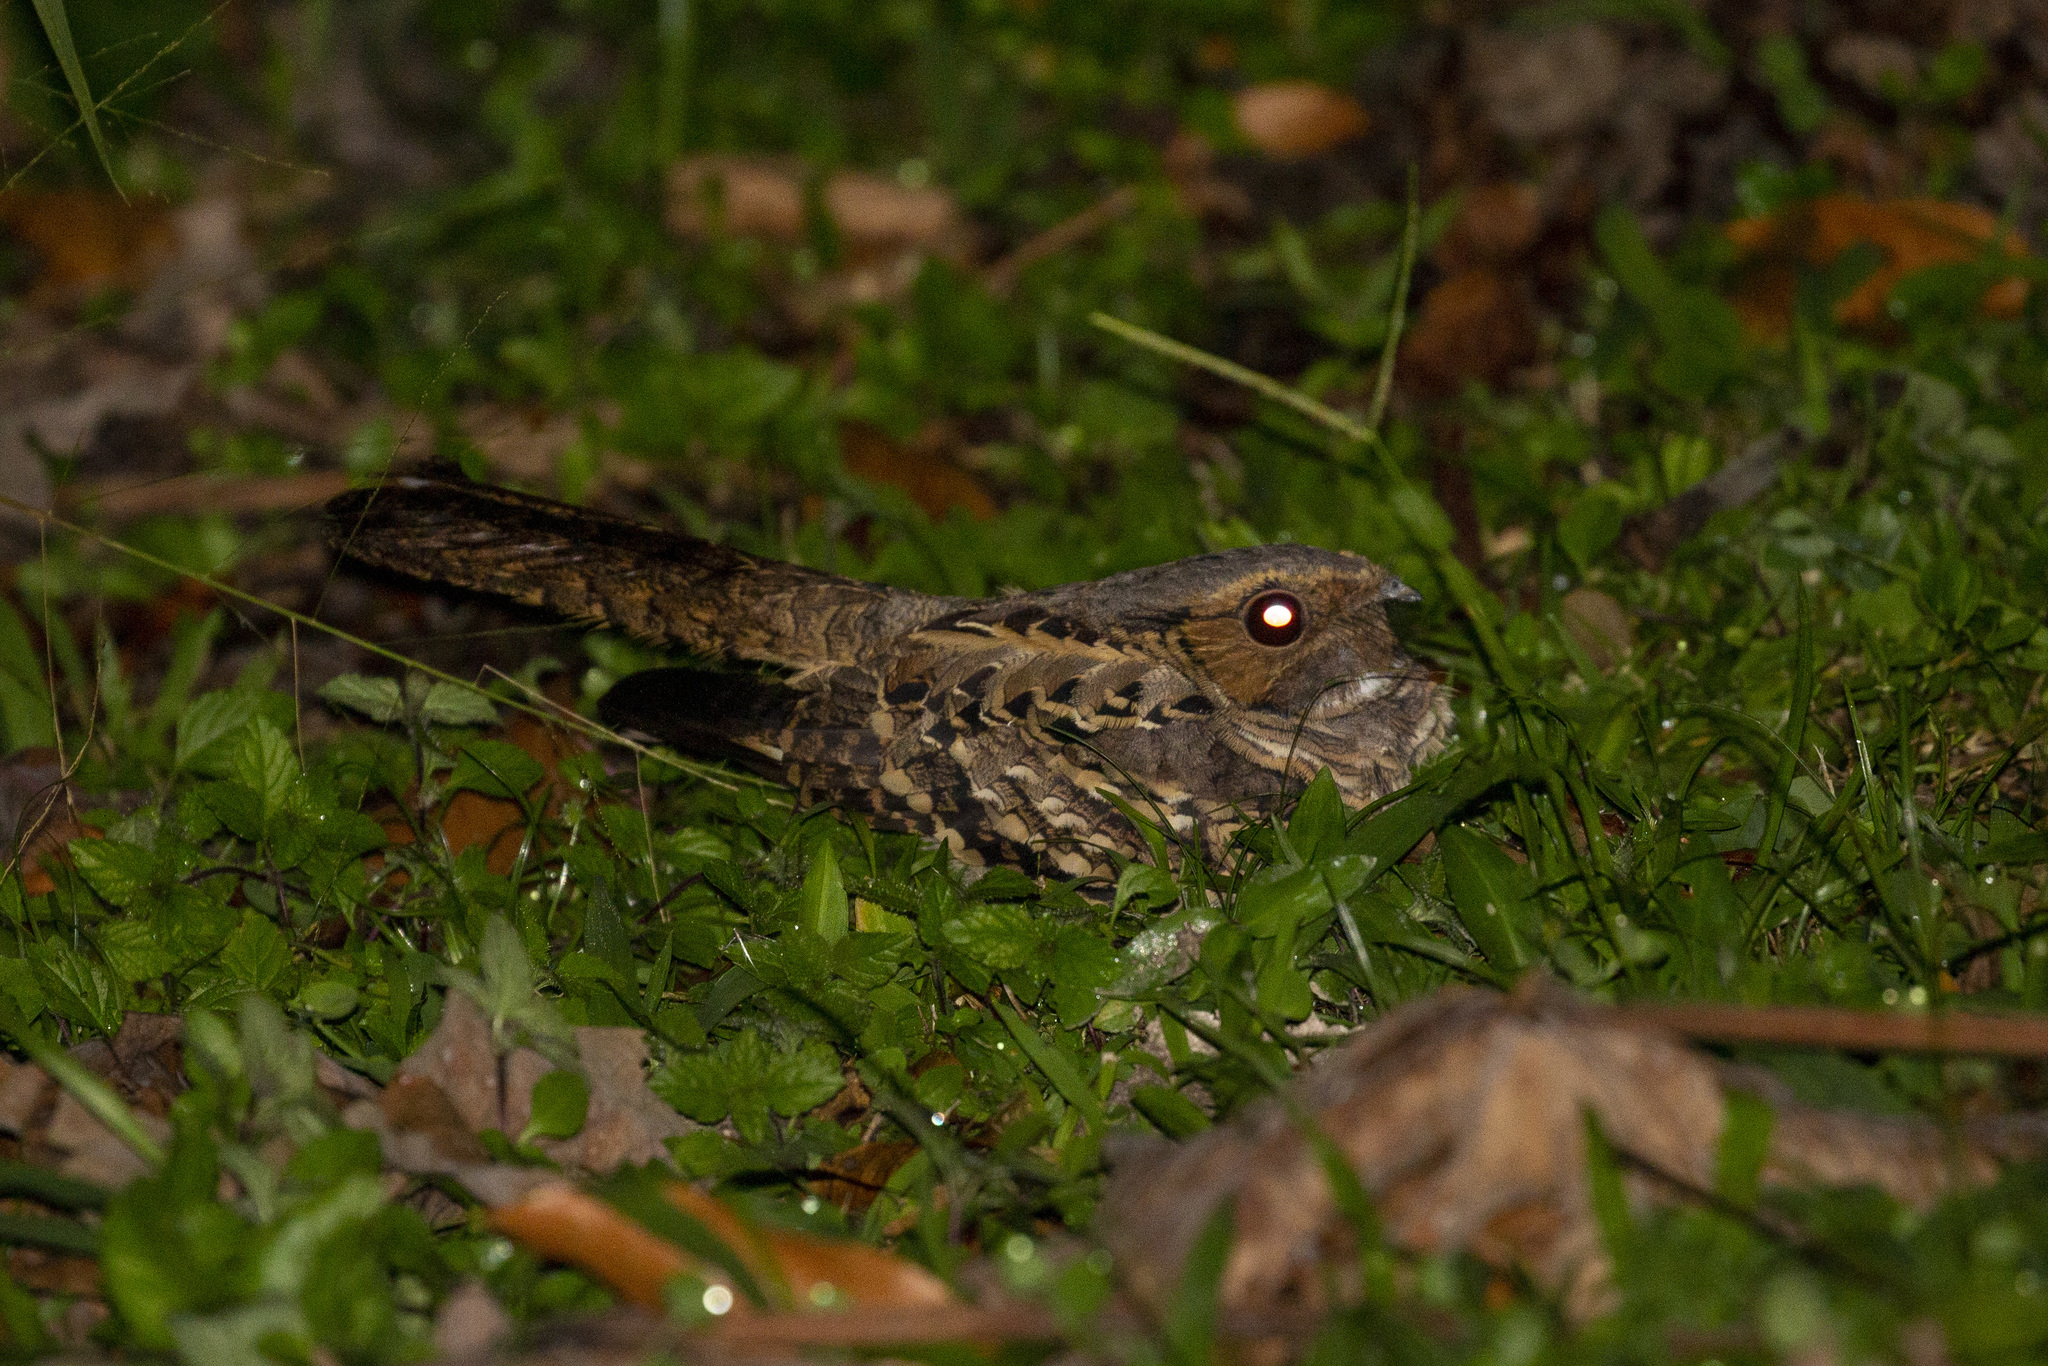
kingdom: Animalia
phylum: Chordata
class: Aves
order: Caprimulgiformes
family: Caprimulgidae
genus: Nyctidromus
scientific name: Nyctidromus albicollis
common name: Pauraque
